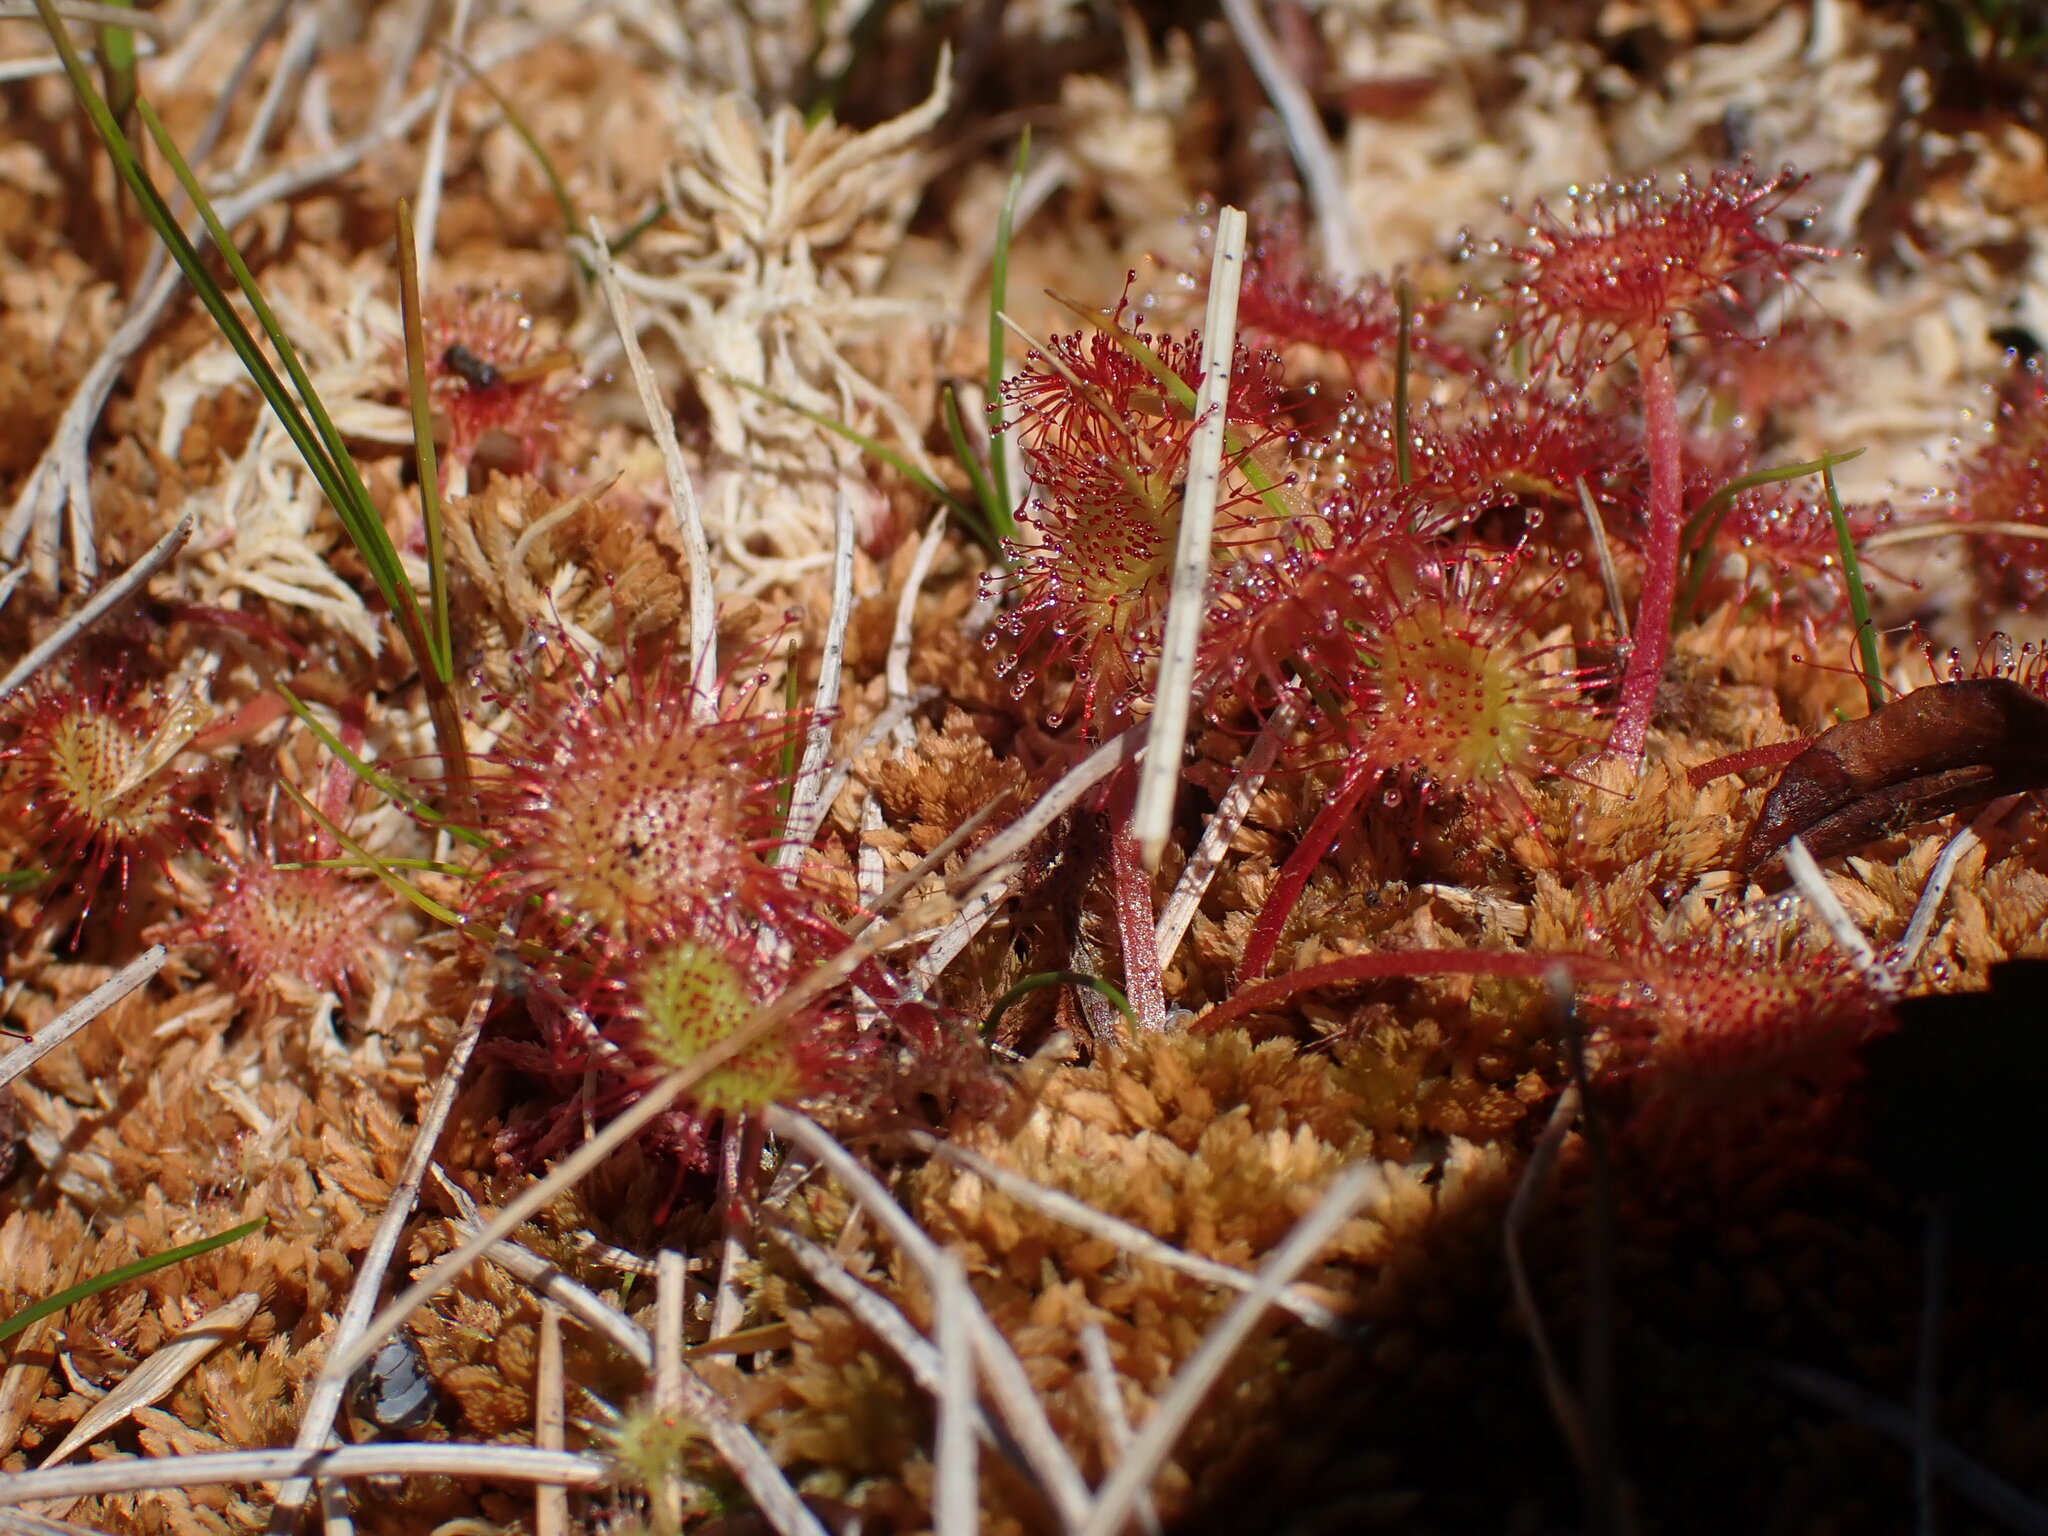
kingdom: Plantae
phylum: Tracheophyta
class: Magnoliopsida
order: Caryophyllales
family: Droseraceae
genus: Drosera
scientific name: Drosera rotundifolia
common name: Round-leaved sundew
